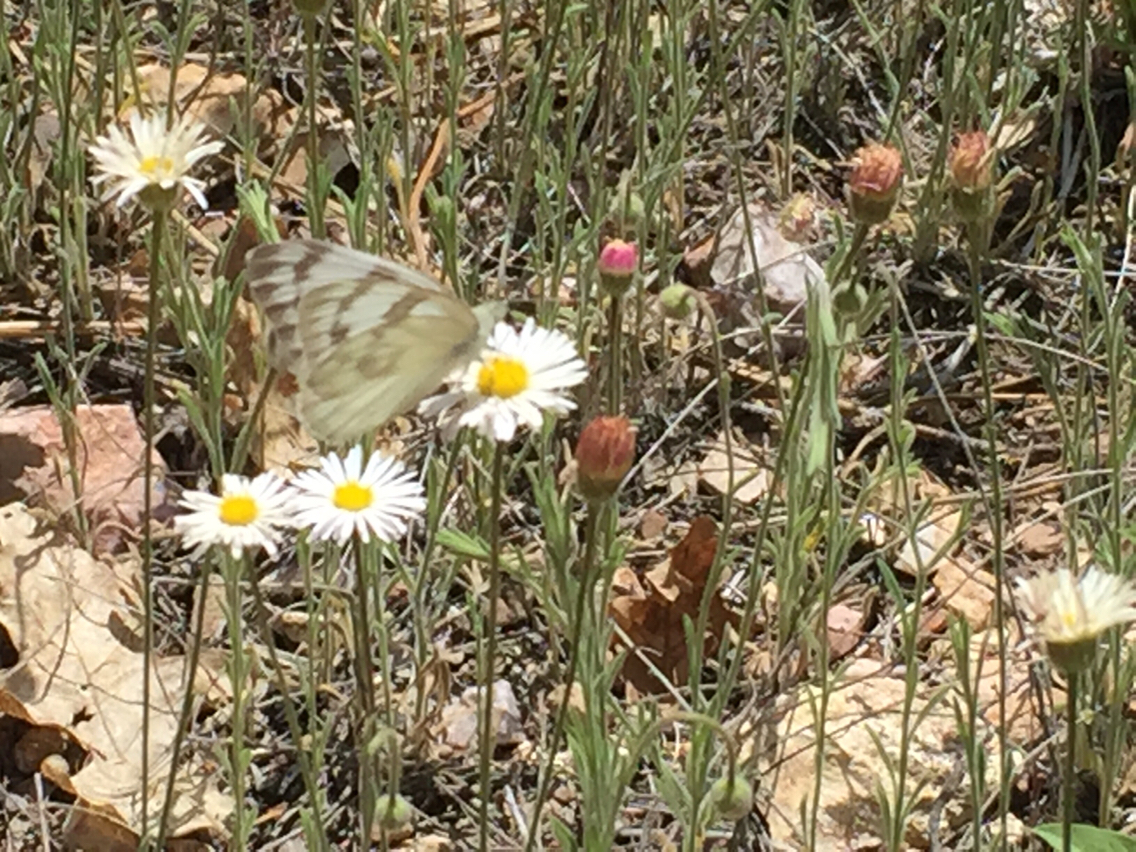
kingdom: Animalia
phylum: Arthropoda
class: Insecta
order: Lepidoptera
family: Pieridae
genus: Pontia
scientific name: Pontia protodice
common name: Checkered white
